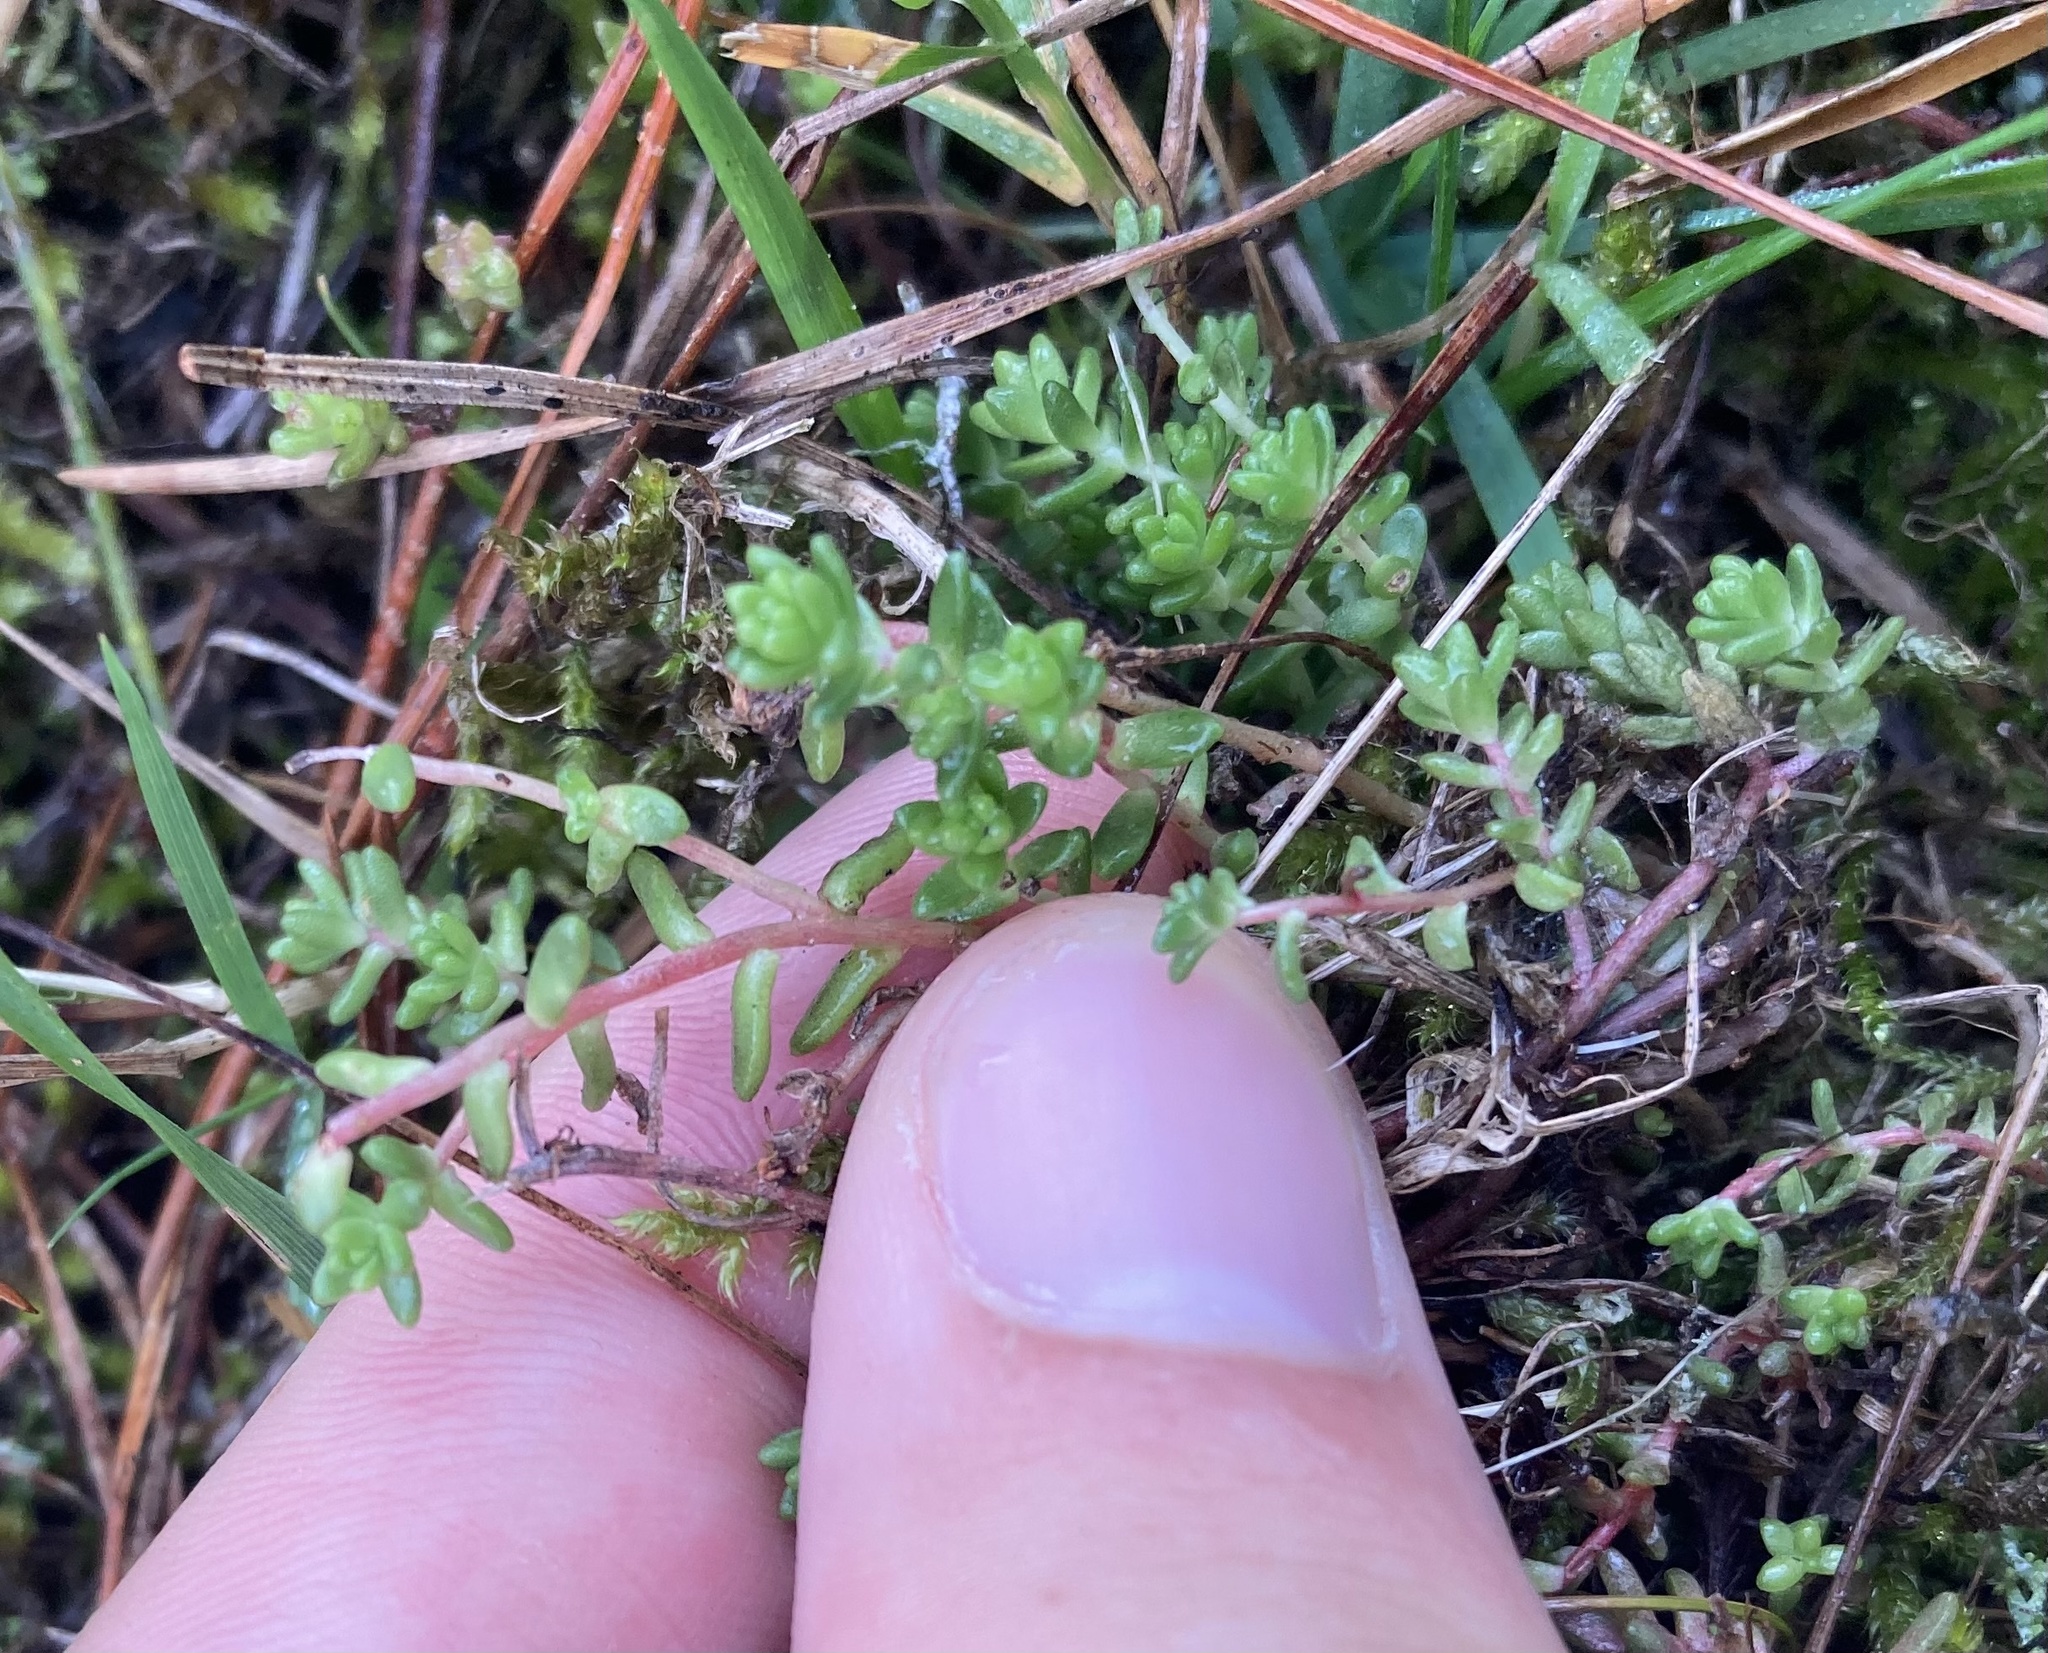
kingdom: Plantae
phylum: Tracheophyta
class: Magnoliopsida
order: Saxifragales
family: Crassulaceae
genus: Sedum
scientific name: Sedum anglicum
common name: English stonecrop
